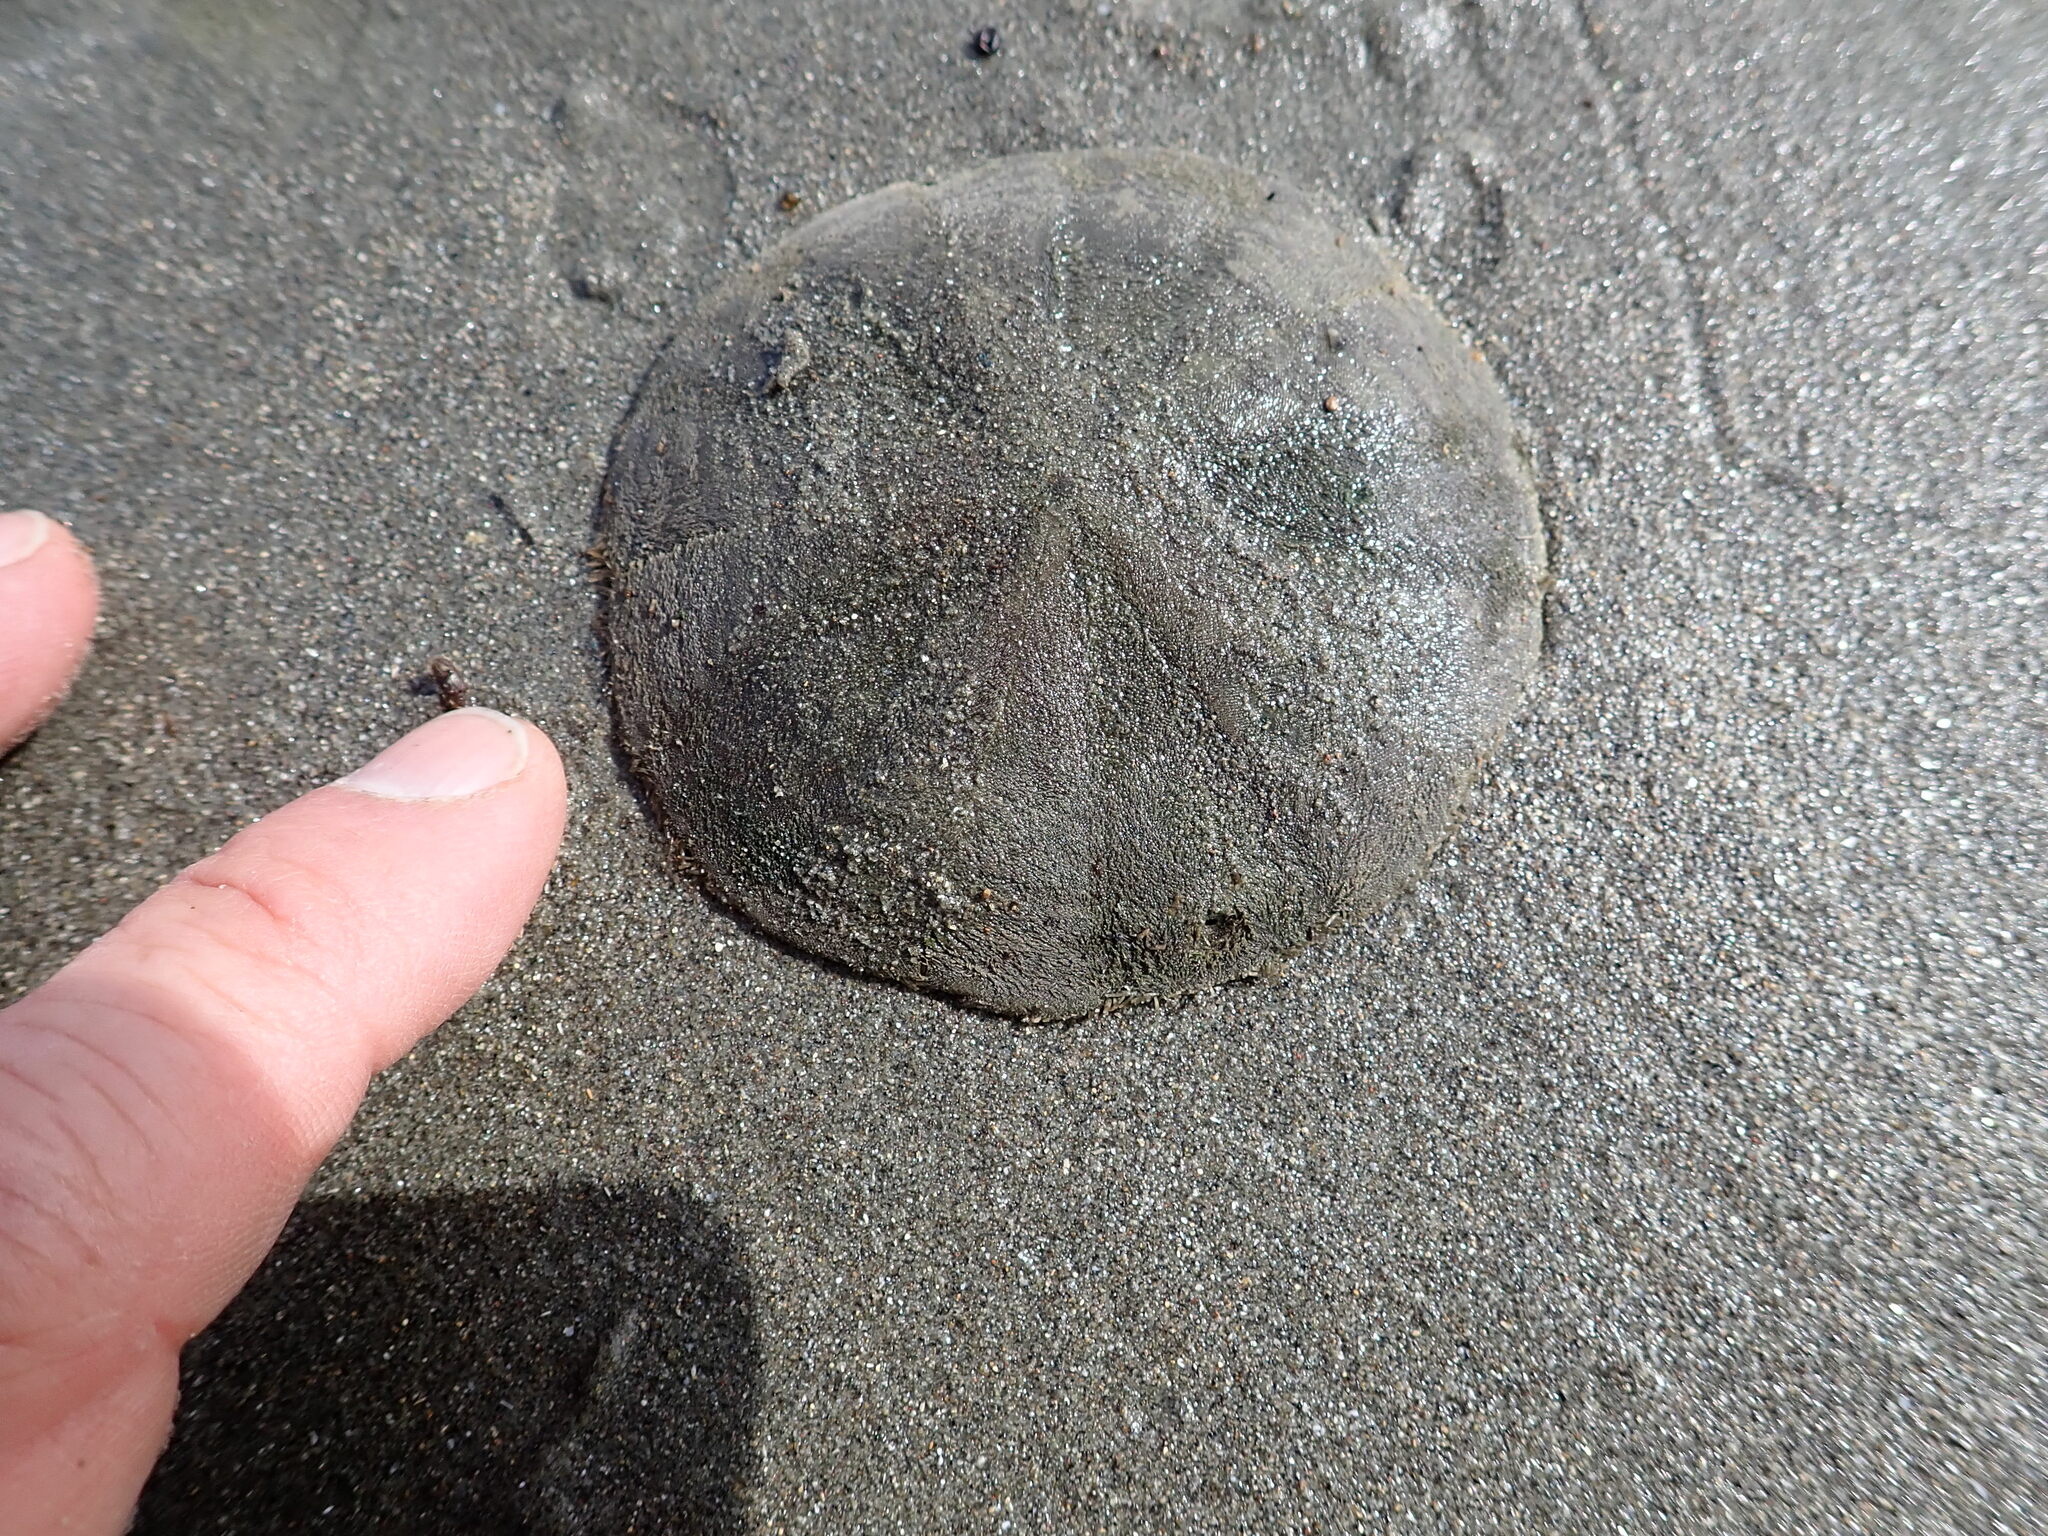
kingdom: Animalia
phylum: Echinodermata
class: Echinoidea
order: Clypeasteroida
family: Clypeasteridae
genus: Fellaster
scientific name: Fellaster zelandiae
